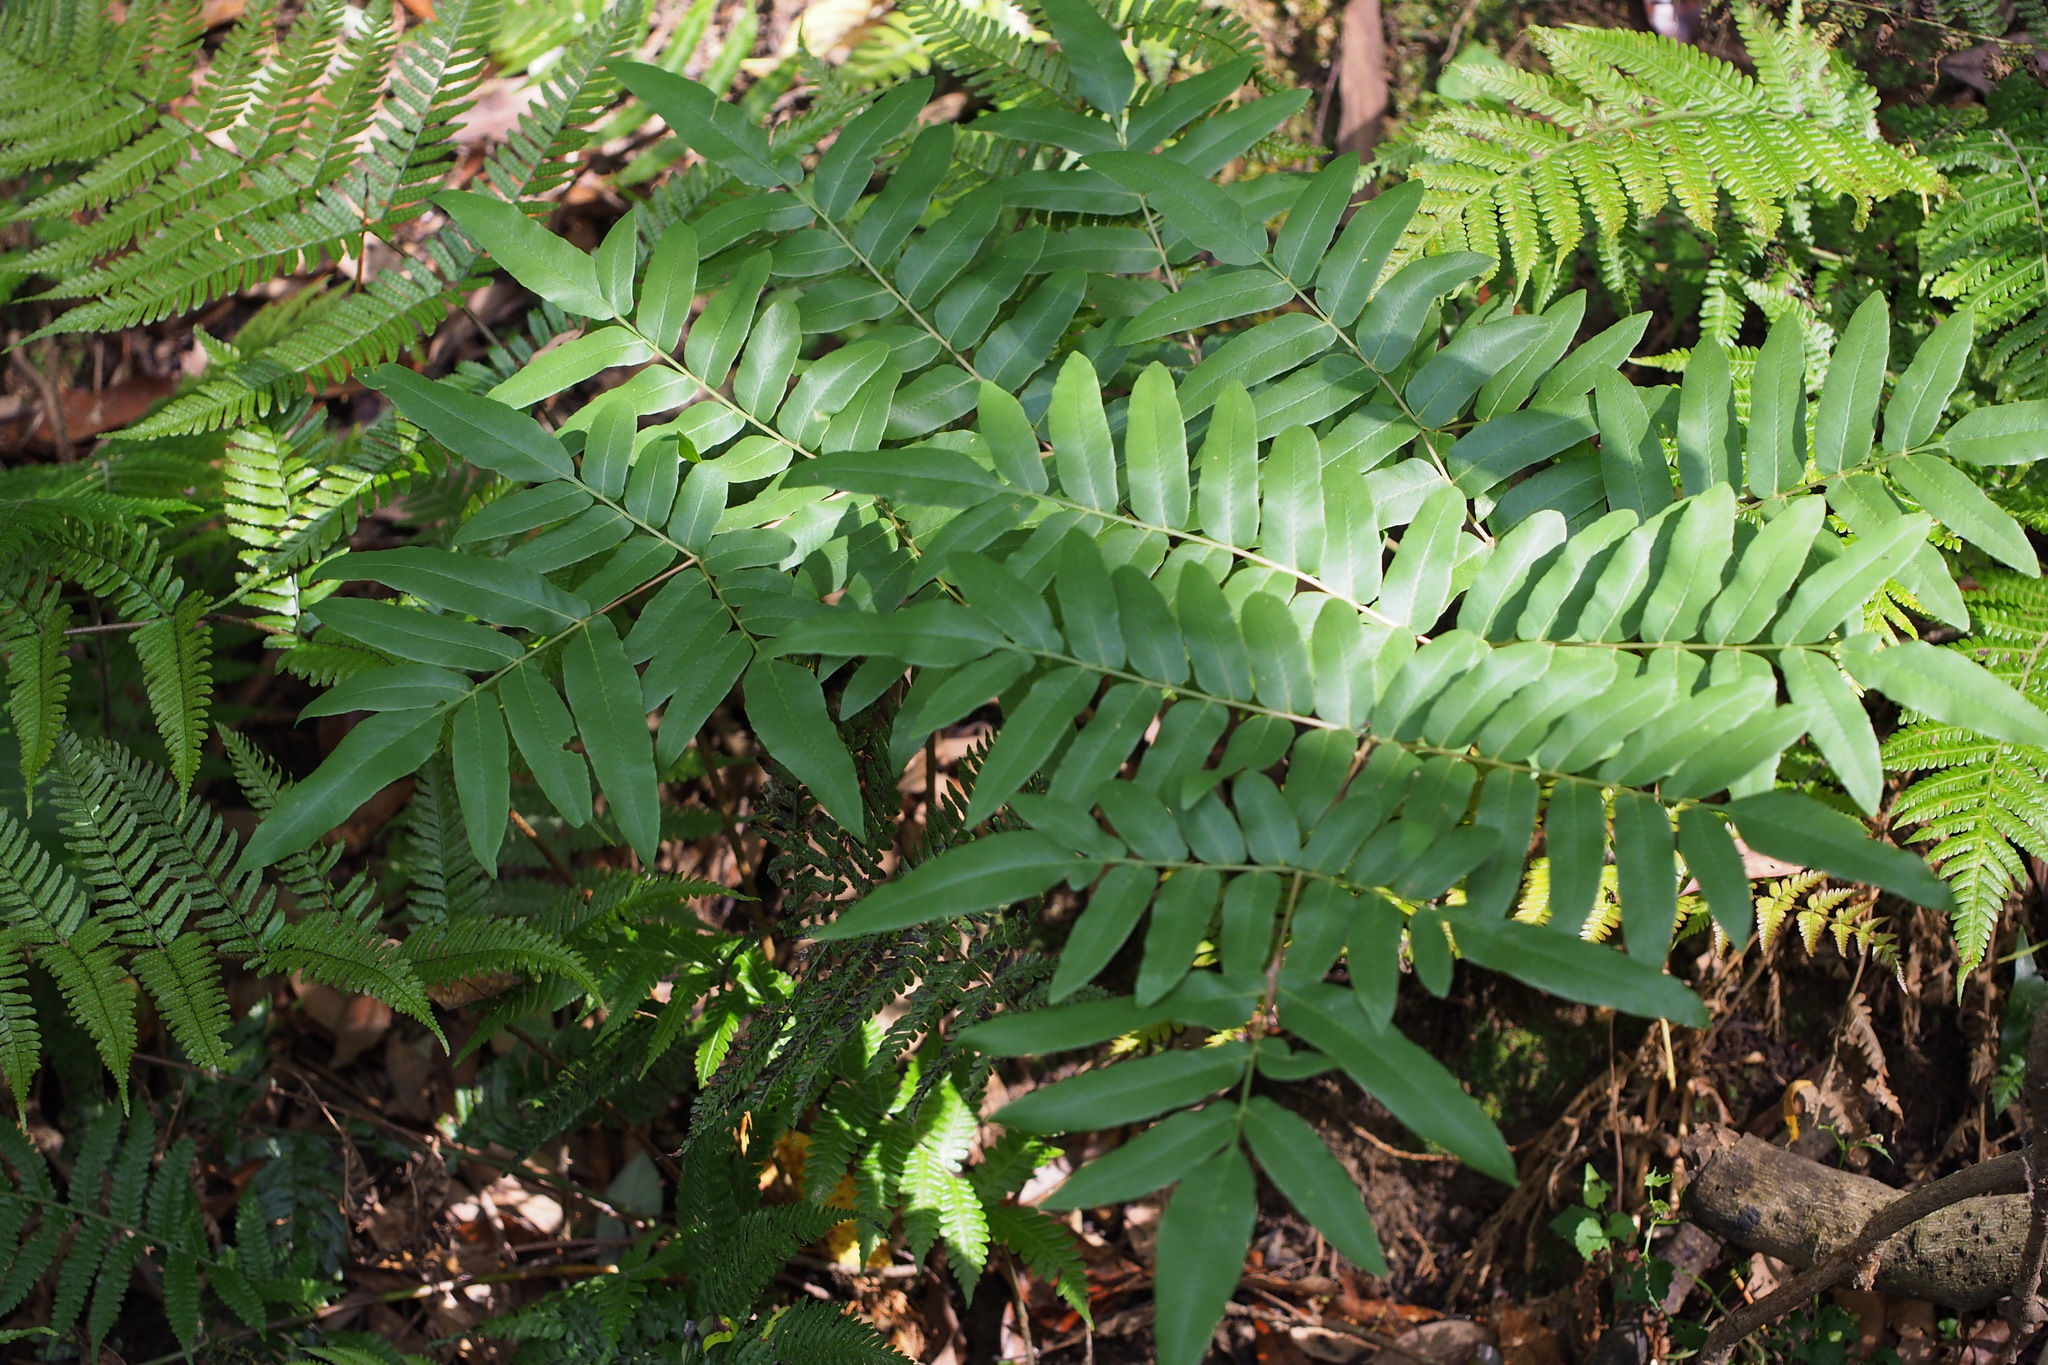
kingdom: Plantae
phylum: Tracheophyta
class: Polypodiopsida
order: Osmundales
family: Osmundaceae
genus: Osmunda
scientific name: Osmunda japonica
